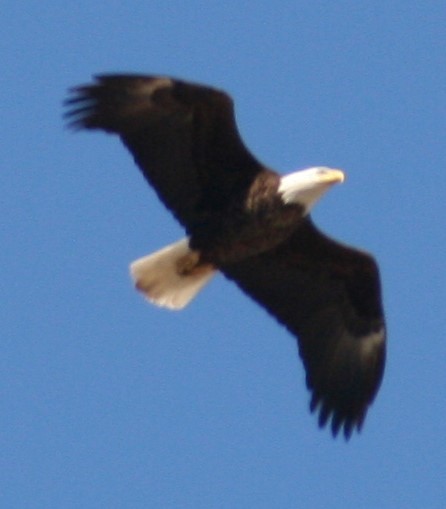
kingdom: Animalia
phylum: Chordata
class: Aves
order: Accipitriformes
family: Accipitridae
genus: Haliaeetus
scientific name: Haliaeetus leucocephalus
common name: Bald eagle
